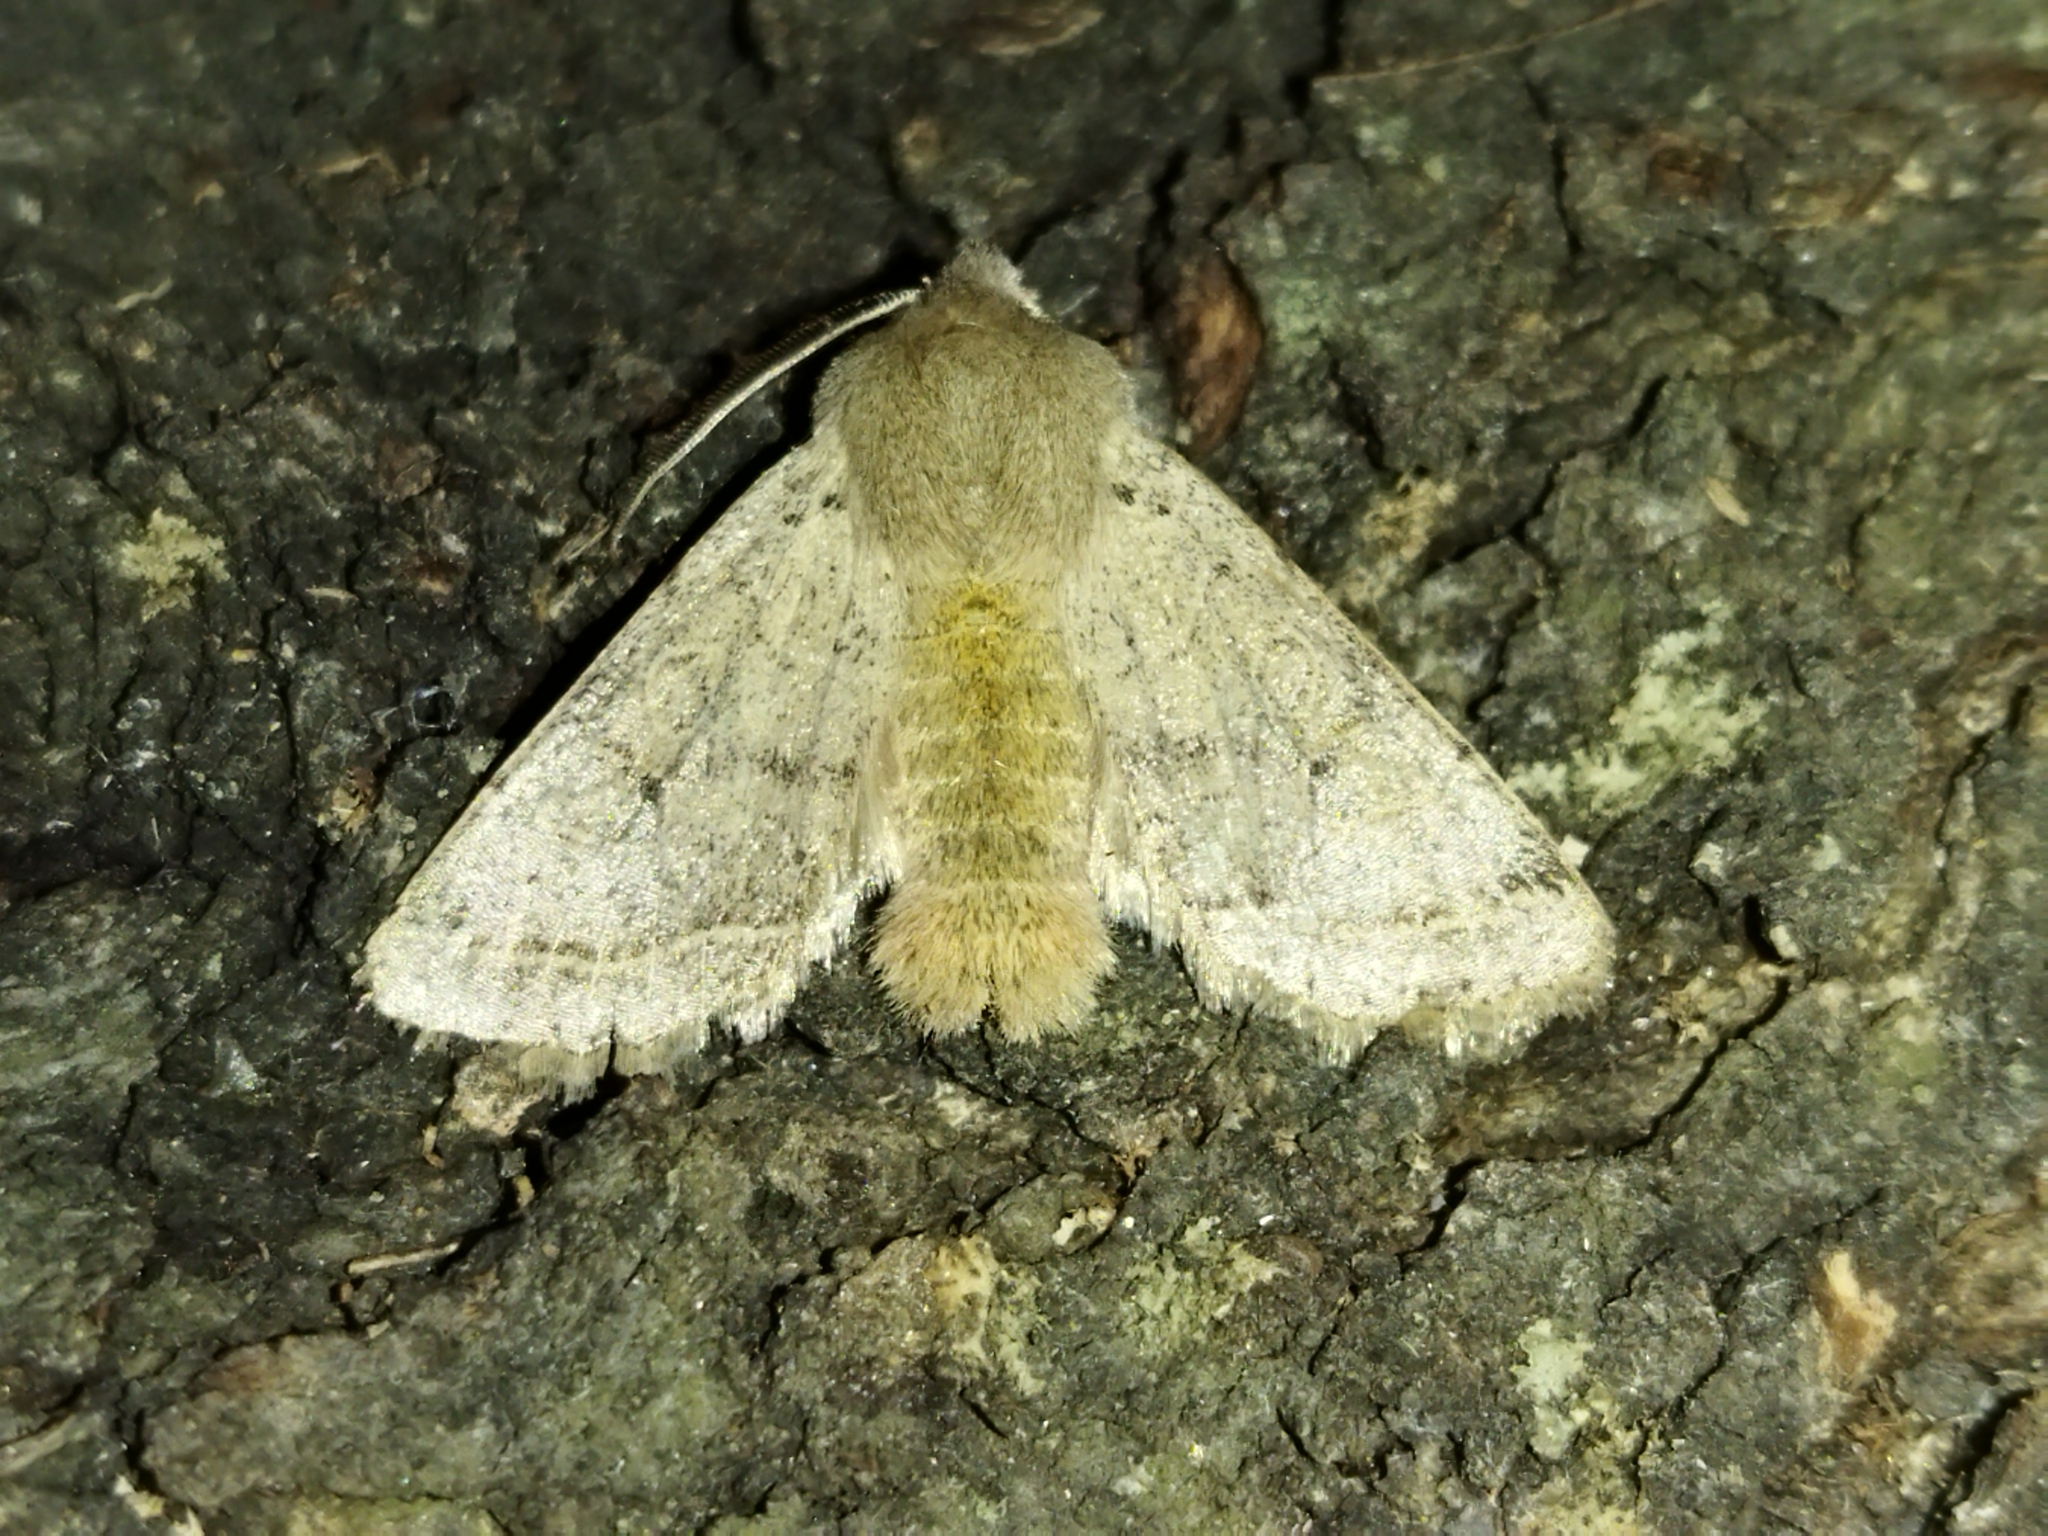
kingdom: Animalia
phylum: Arthropoda
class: Insecta
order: Lepidoptera
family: Noctuidae
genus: Orthosia
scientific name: Orthosia cerasi
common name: Common quaker
